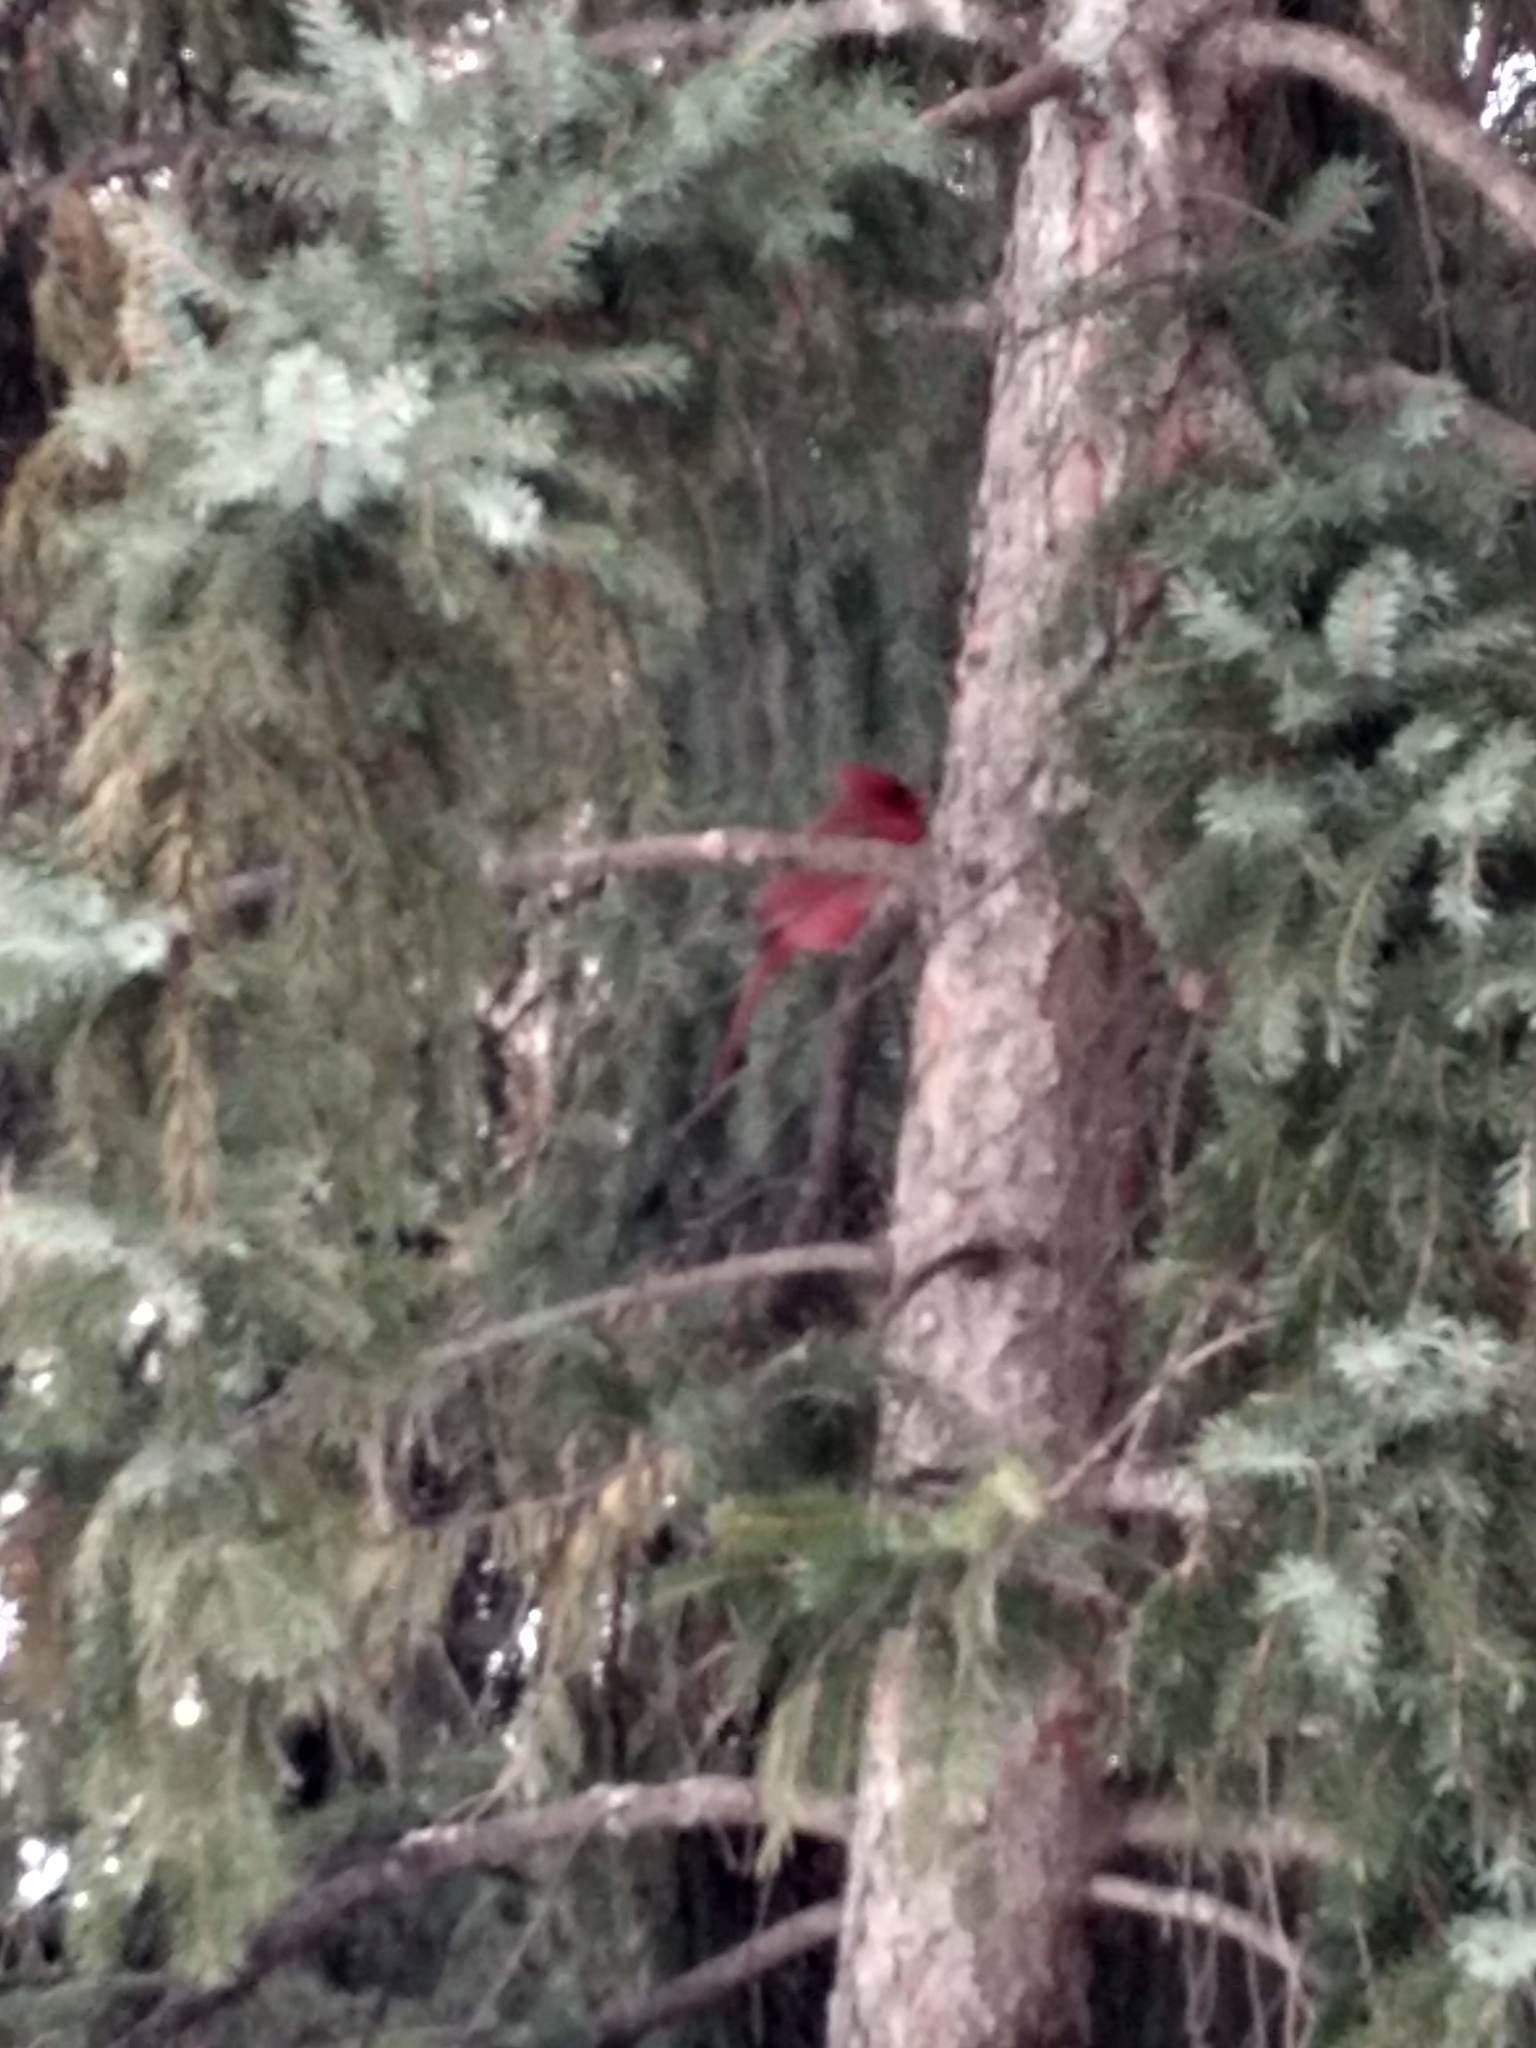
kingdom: Animalia
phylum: Chordata
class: Aves
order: Passeriformes
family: Cardinalidae
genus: Cardinalis
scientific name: Cardinalis cardinalis
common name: Northern cardinal
